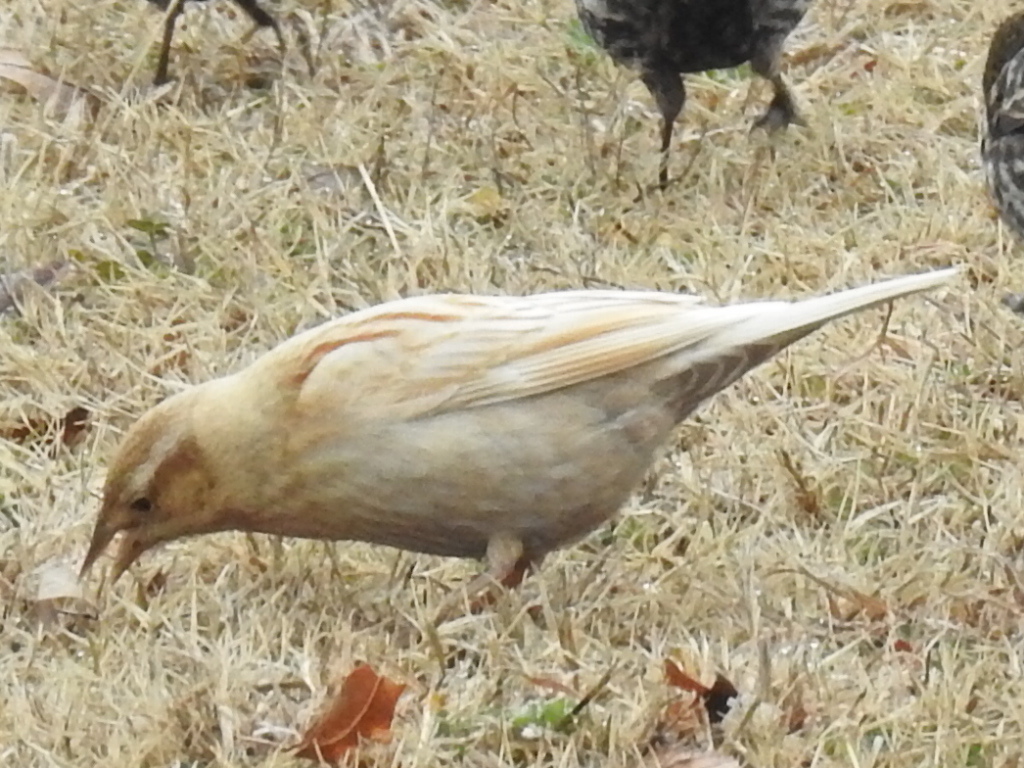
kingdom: Animalia
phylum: Chordata
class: Aves
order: Passeriformes
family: Icteridae
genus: Agelaius
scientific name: Agelaius phoeniceus
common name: Red-winged blackbird
